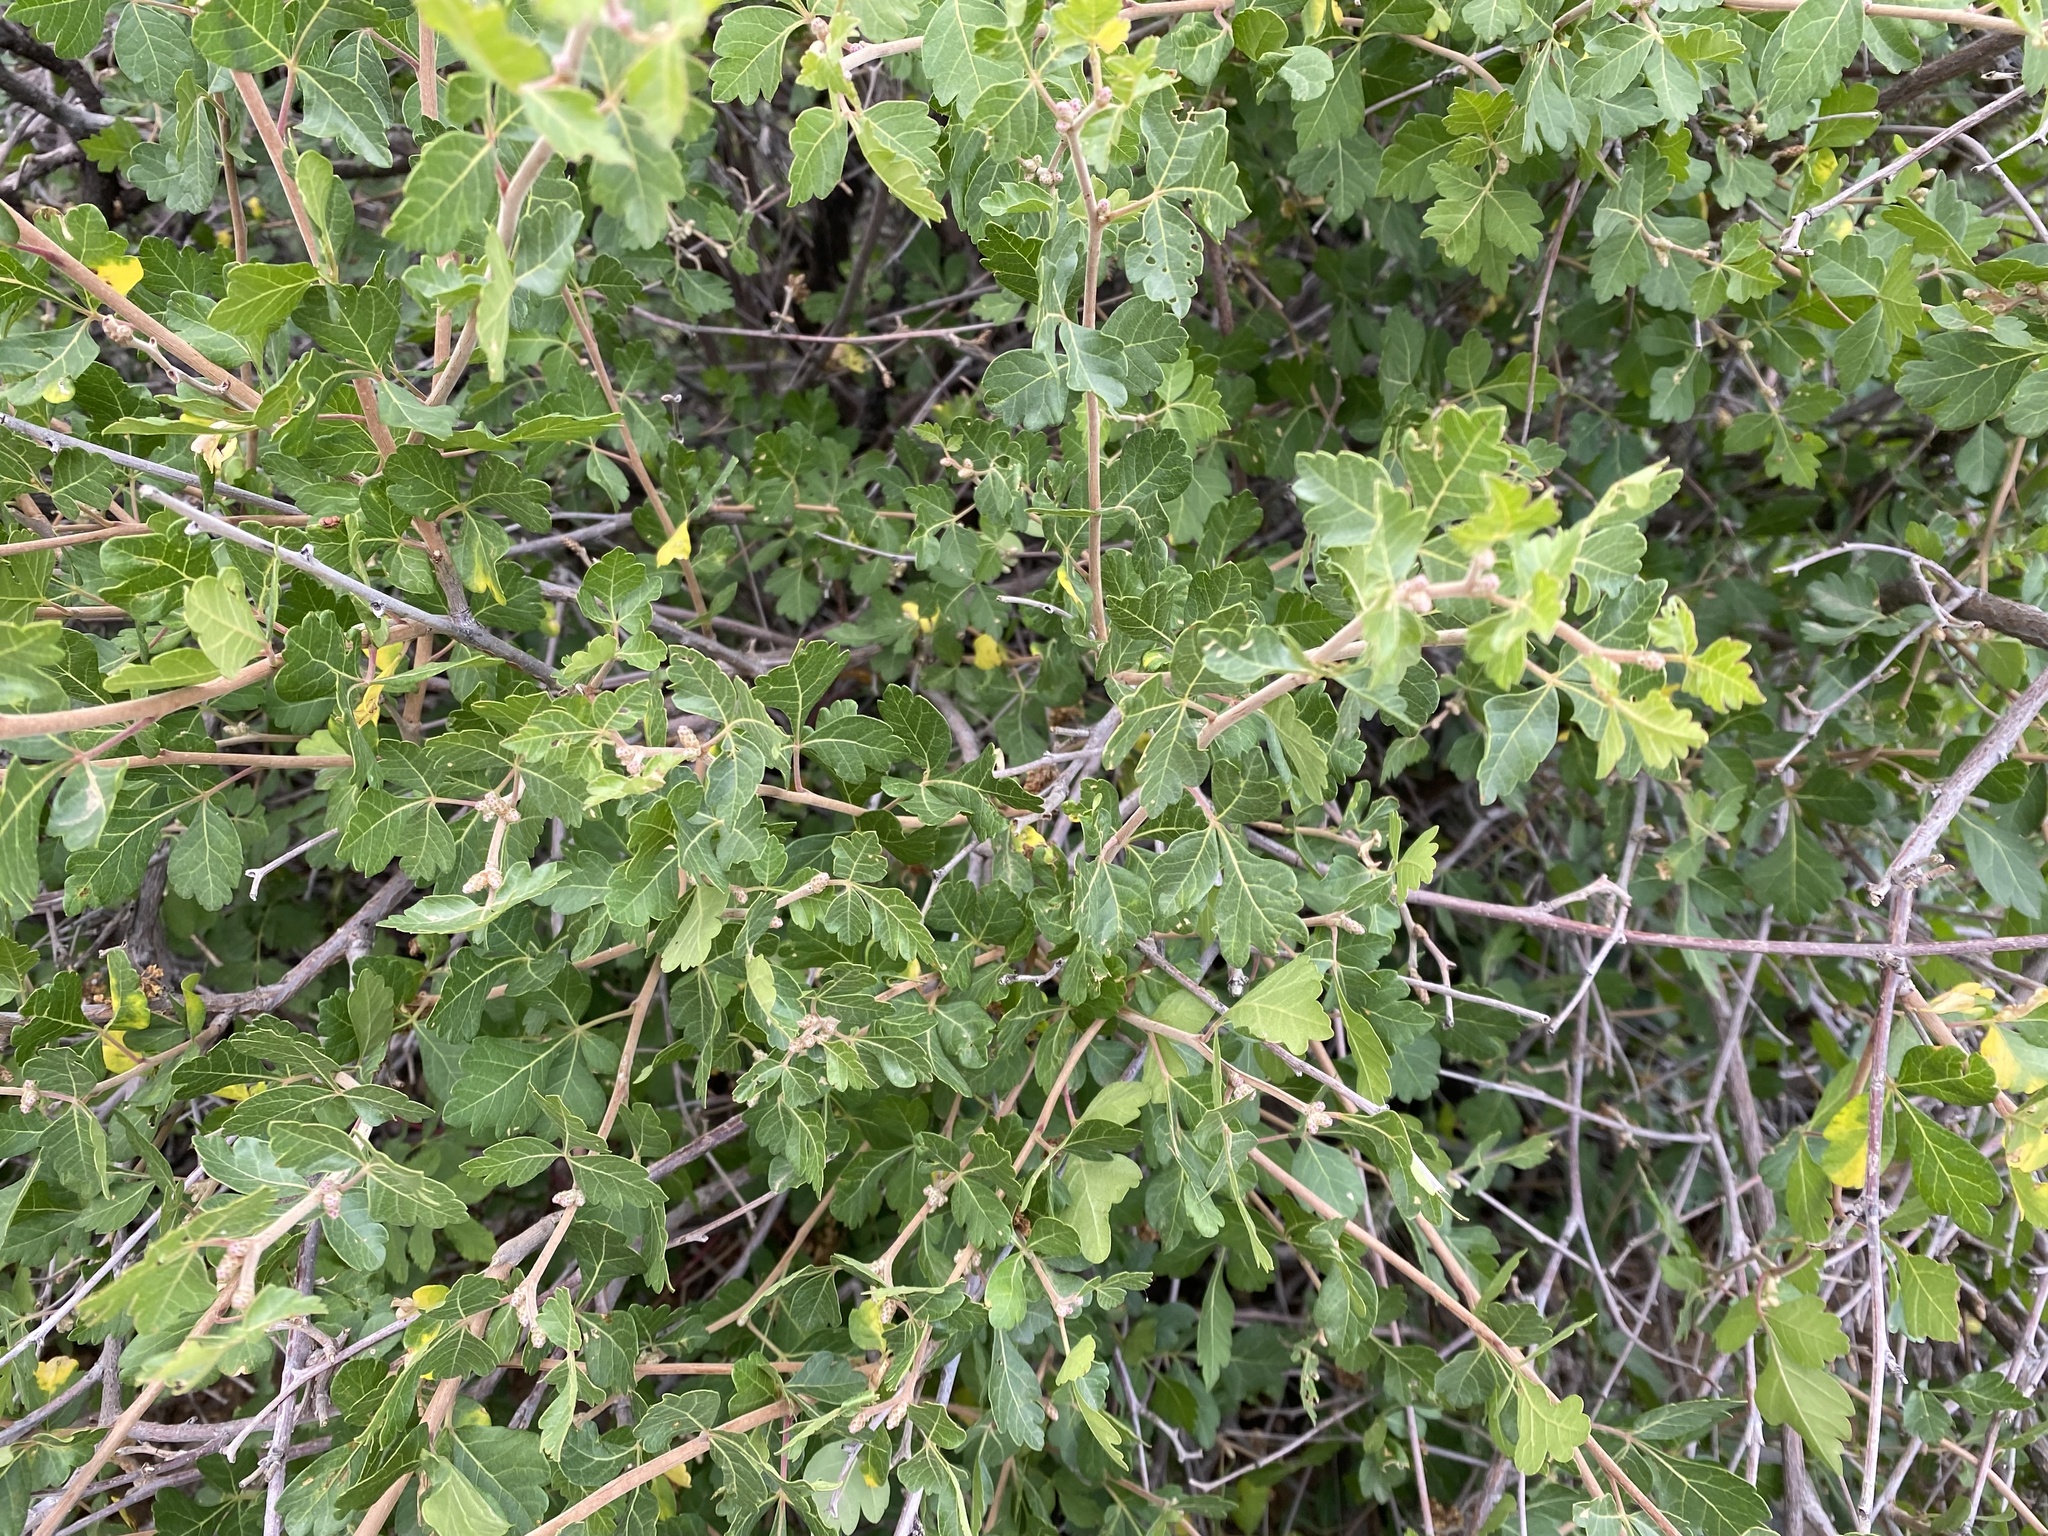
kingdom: Plantae
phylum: Tracheophyta
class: Magnoliopsida
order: Sapindales
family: Anacardiaceae
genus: Rhus
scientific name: Rhus trilobata
